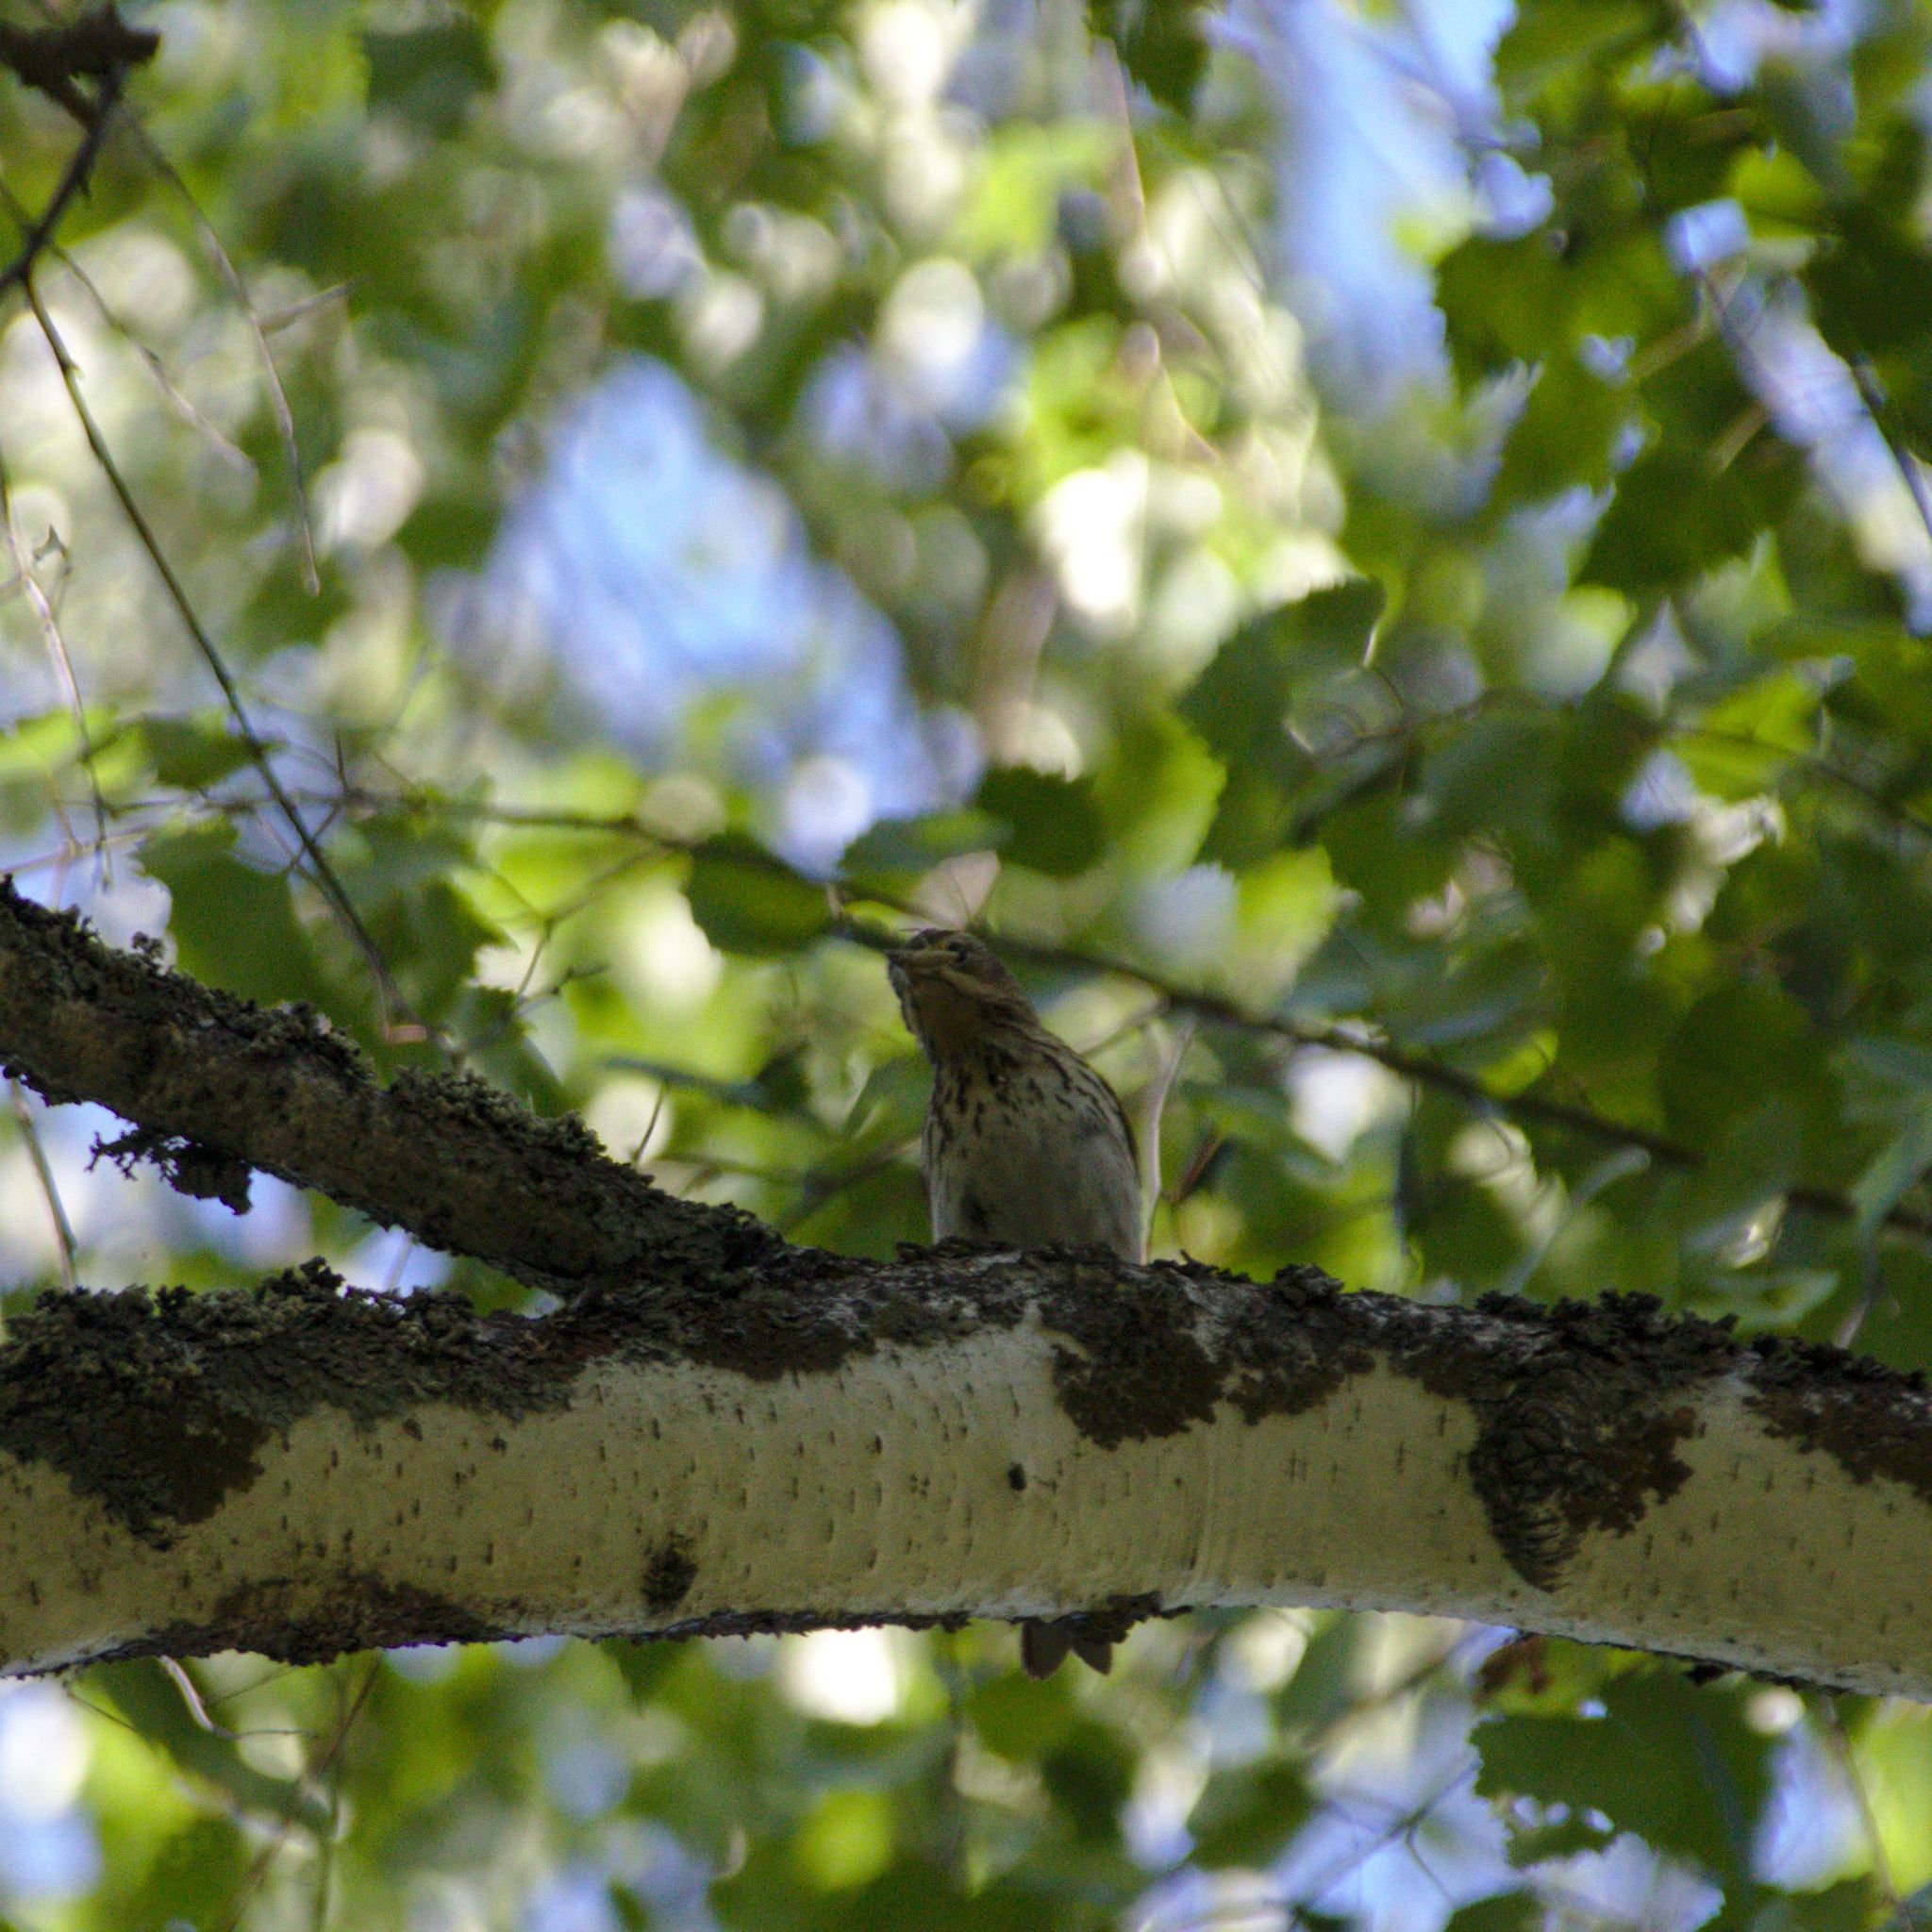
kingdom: Animalia
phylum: Chordata
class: Aves
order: Passeriformes
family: Motacillidae
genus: Anthus
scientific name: Anthus trivialis
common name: Tree pipit
